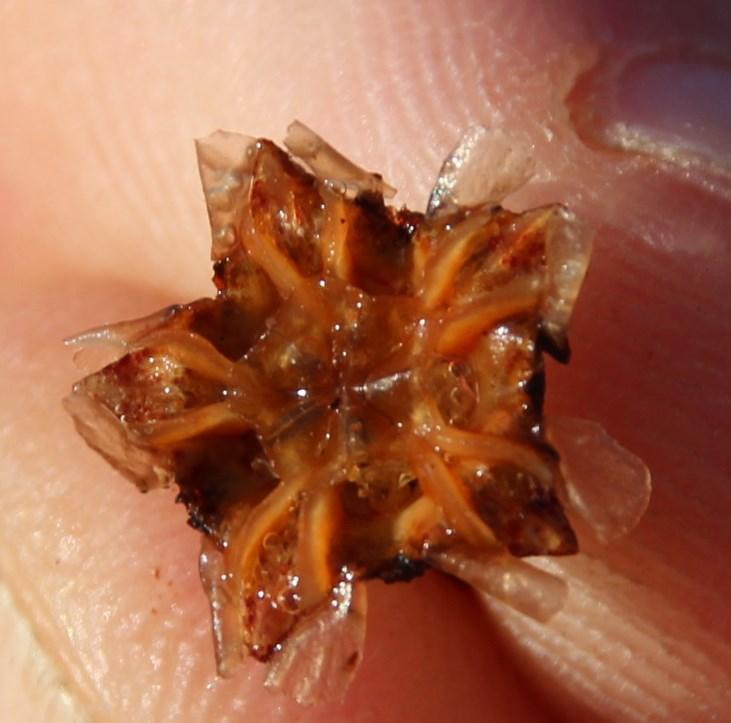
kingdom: Plantae
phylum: Tracheophyta
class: Magnoliopsida
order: Caryophyllales
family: Aizoaceae
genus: Phiambolia
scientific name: Phiambolia hallii
